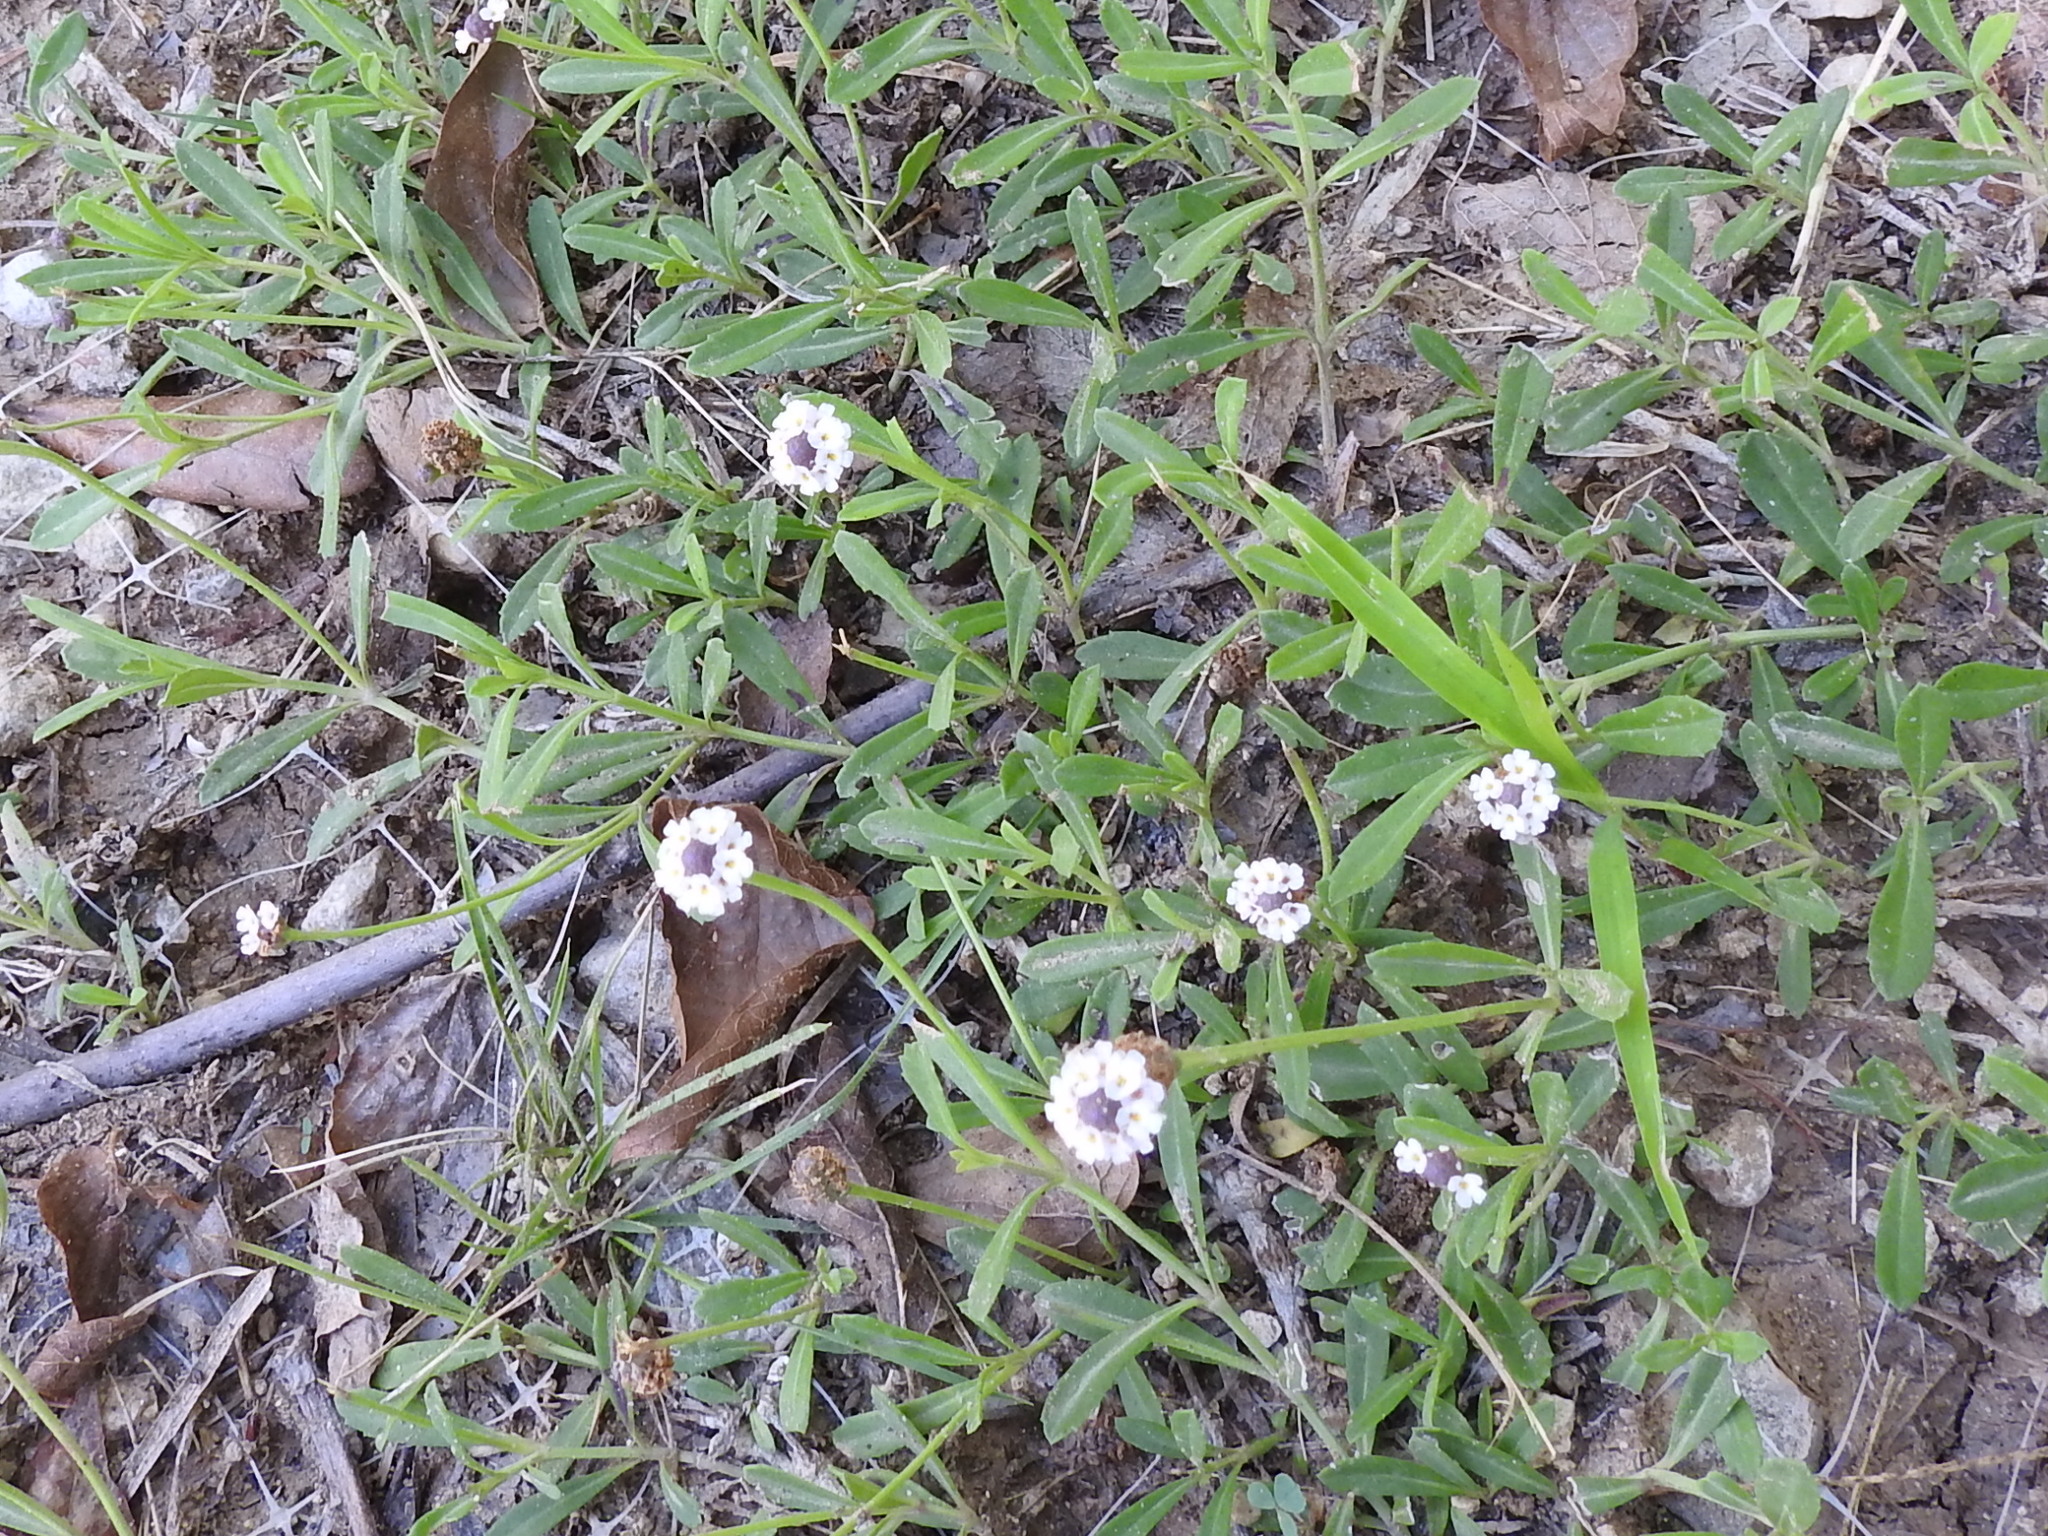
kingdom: Plantae
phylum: Tracheophyta
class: Magnoliopsida
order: Lamiales
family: Verbenaceae
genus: Phyla
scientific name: Phyla nodiflora
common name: Frogfruit
